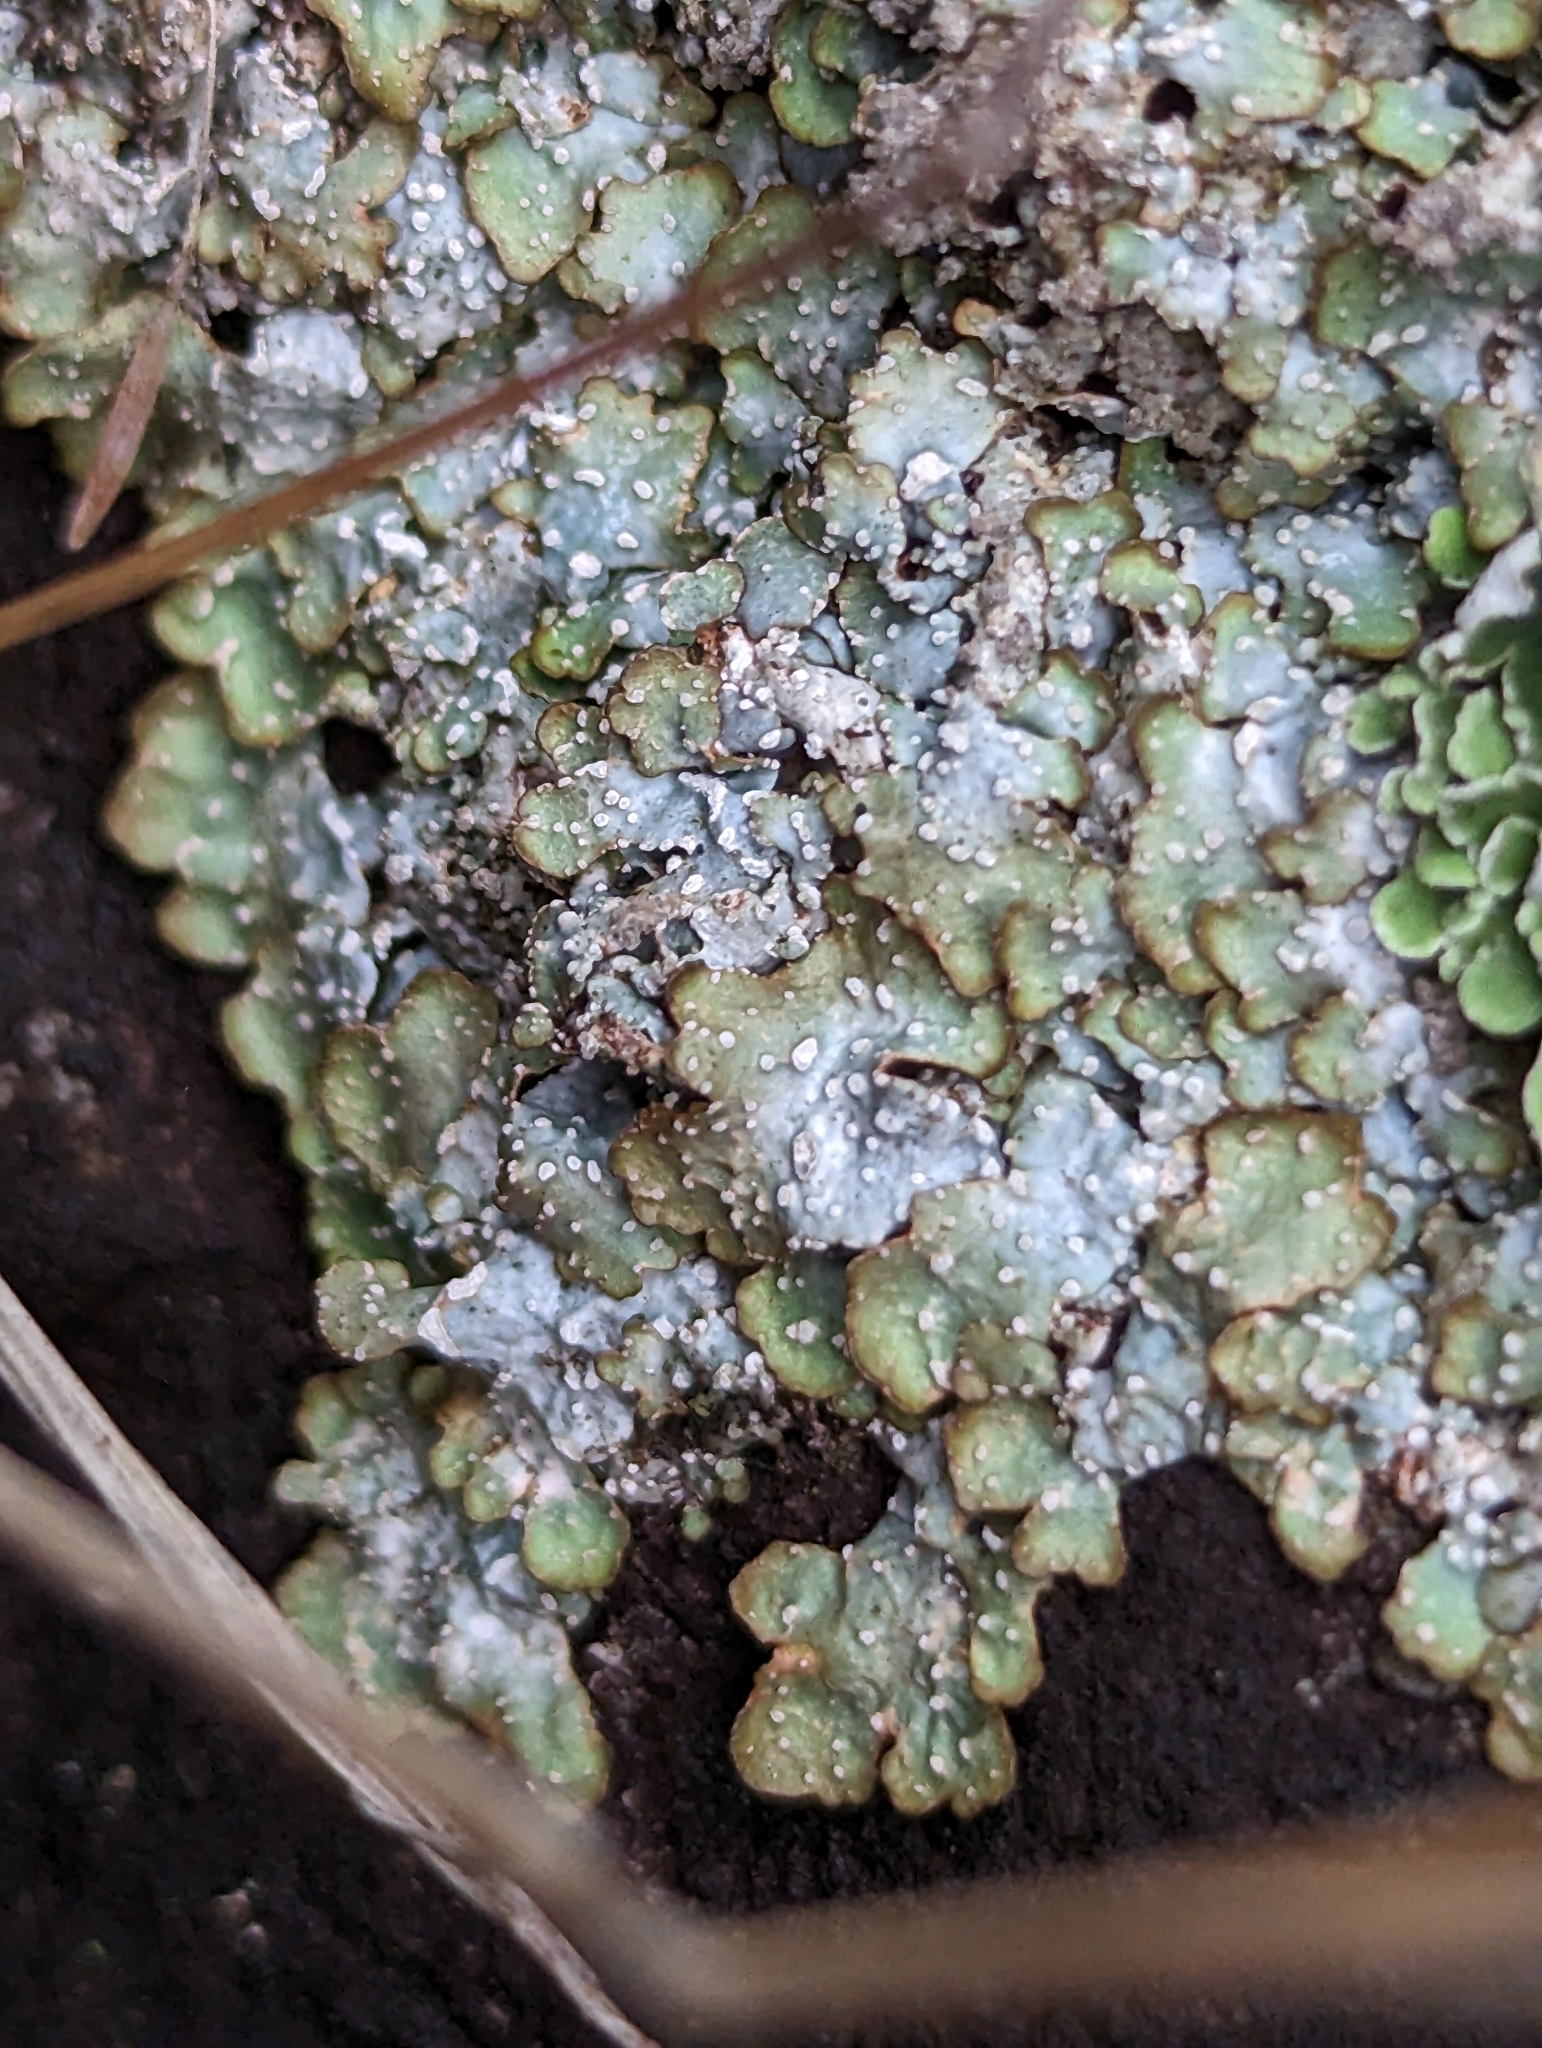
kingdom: Fungi
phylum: Ascomycota
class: Lecanoromycetes
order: Lecanorales
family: Parmeliaceae
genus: Punctelia
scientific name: Punctelia stictica
